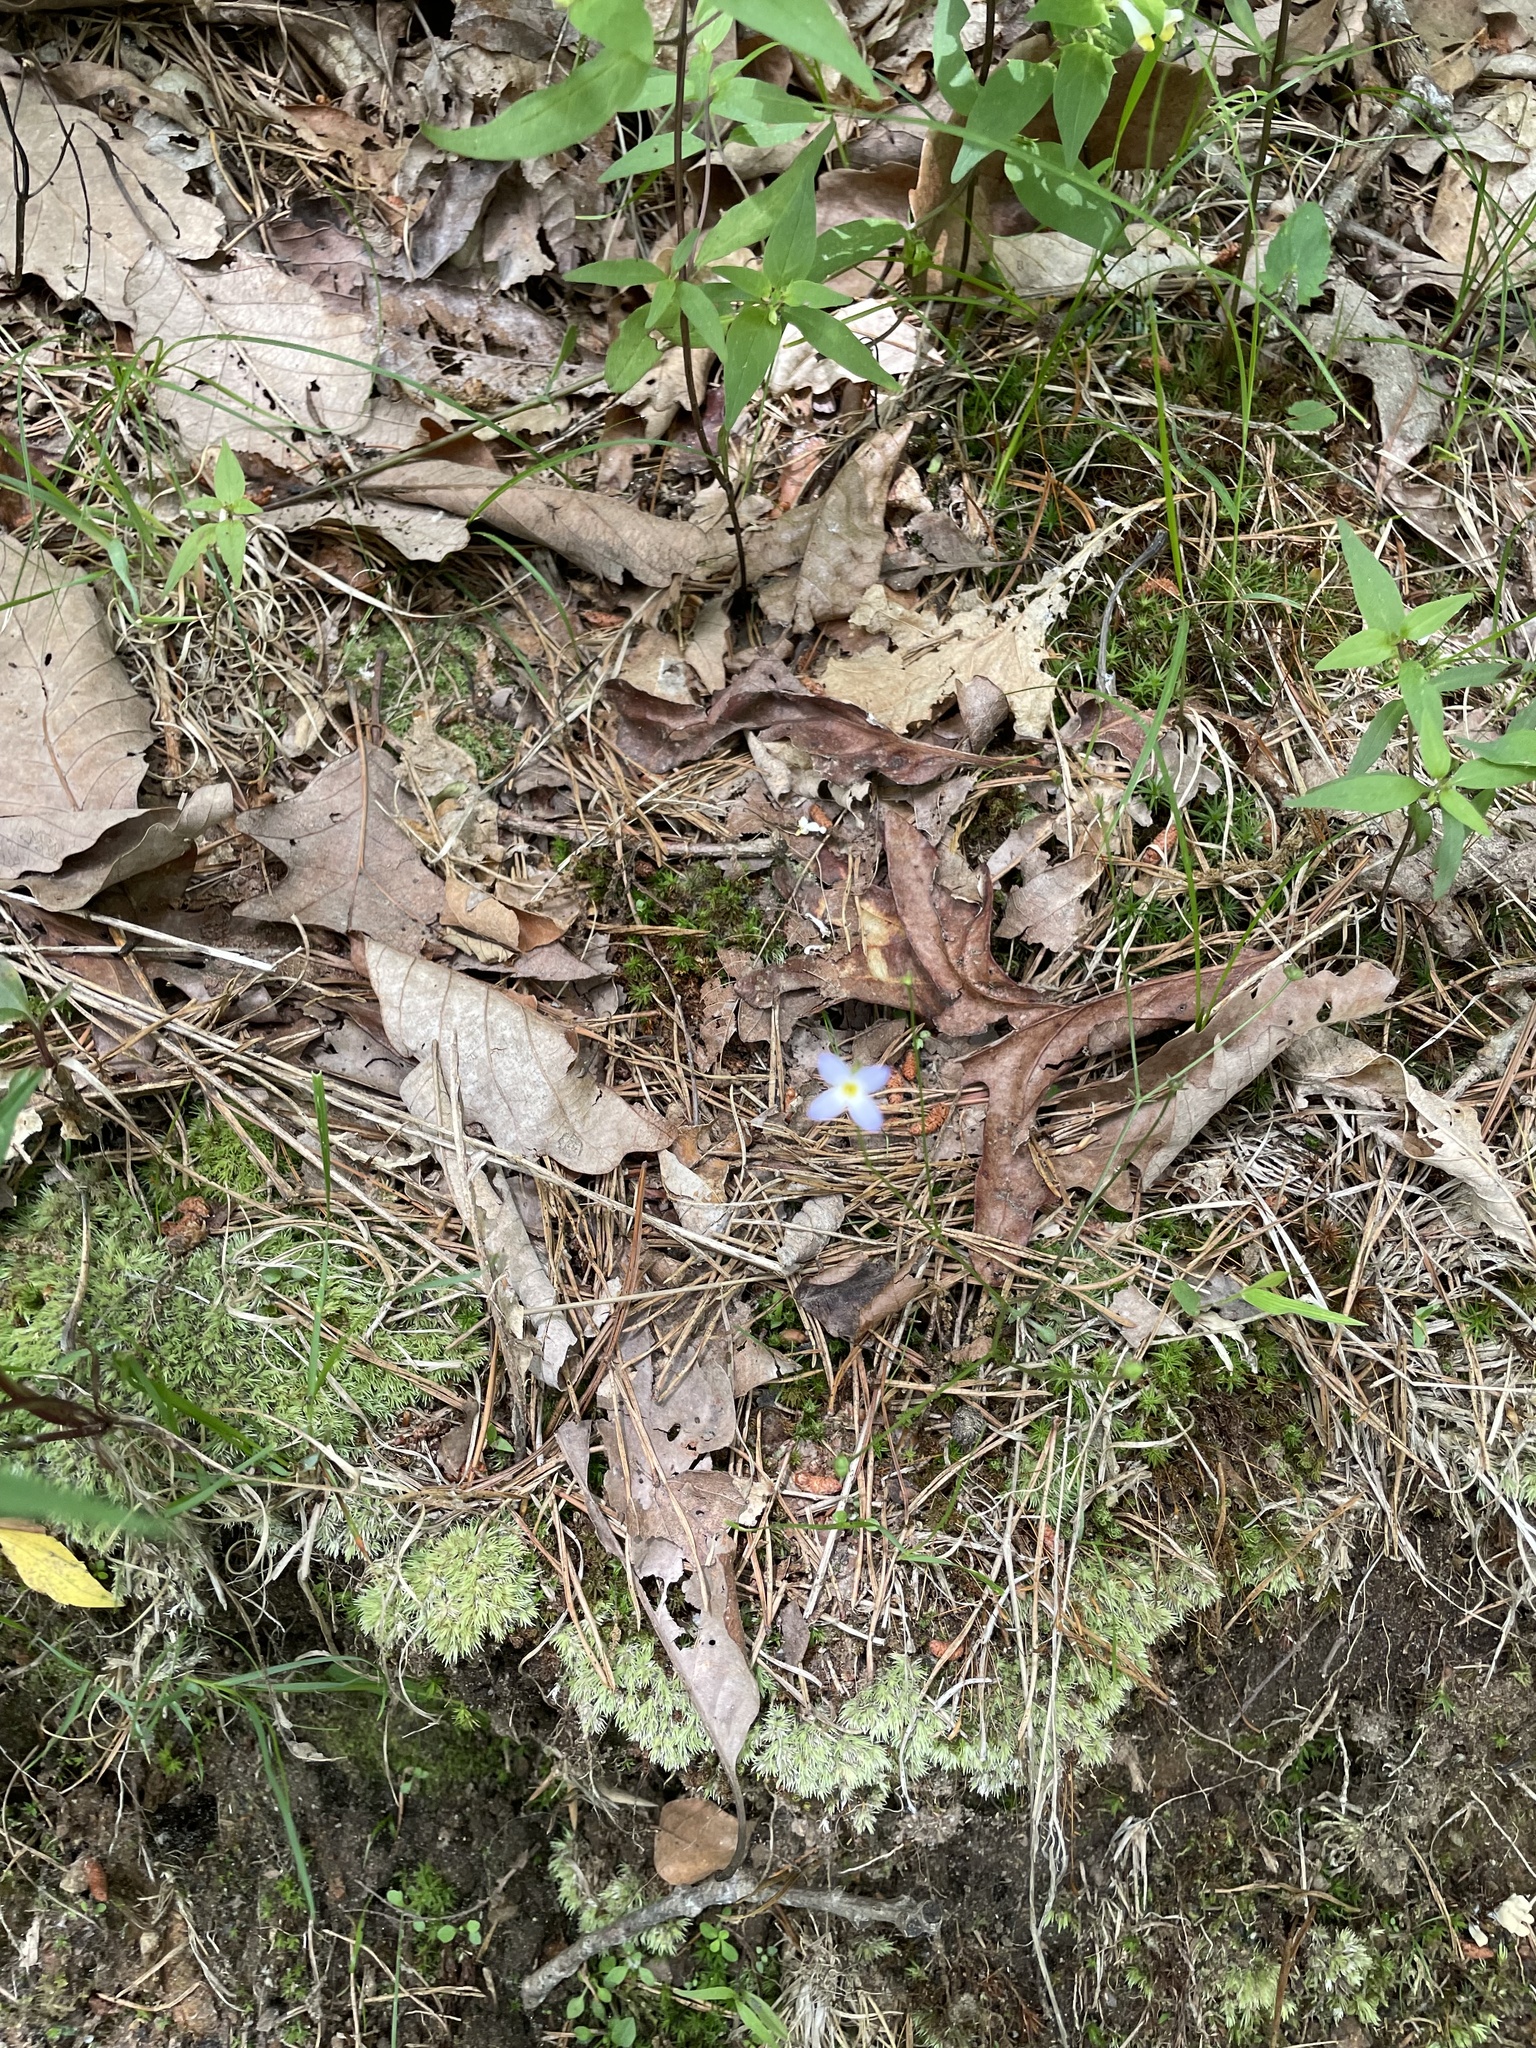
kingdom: Plantae
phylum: Tracheophyta
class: Magnoliopsida
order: Gentianales
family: Rubiaceae
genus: Houstonia
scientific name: Houstonia caerulea
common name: Bluets
